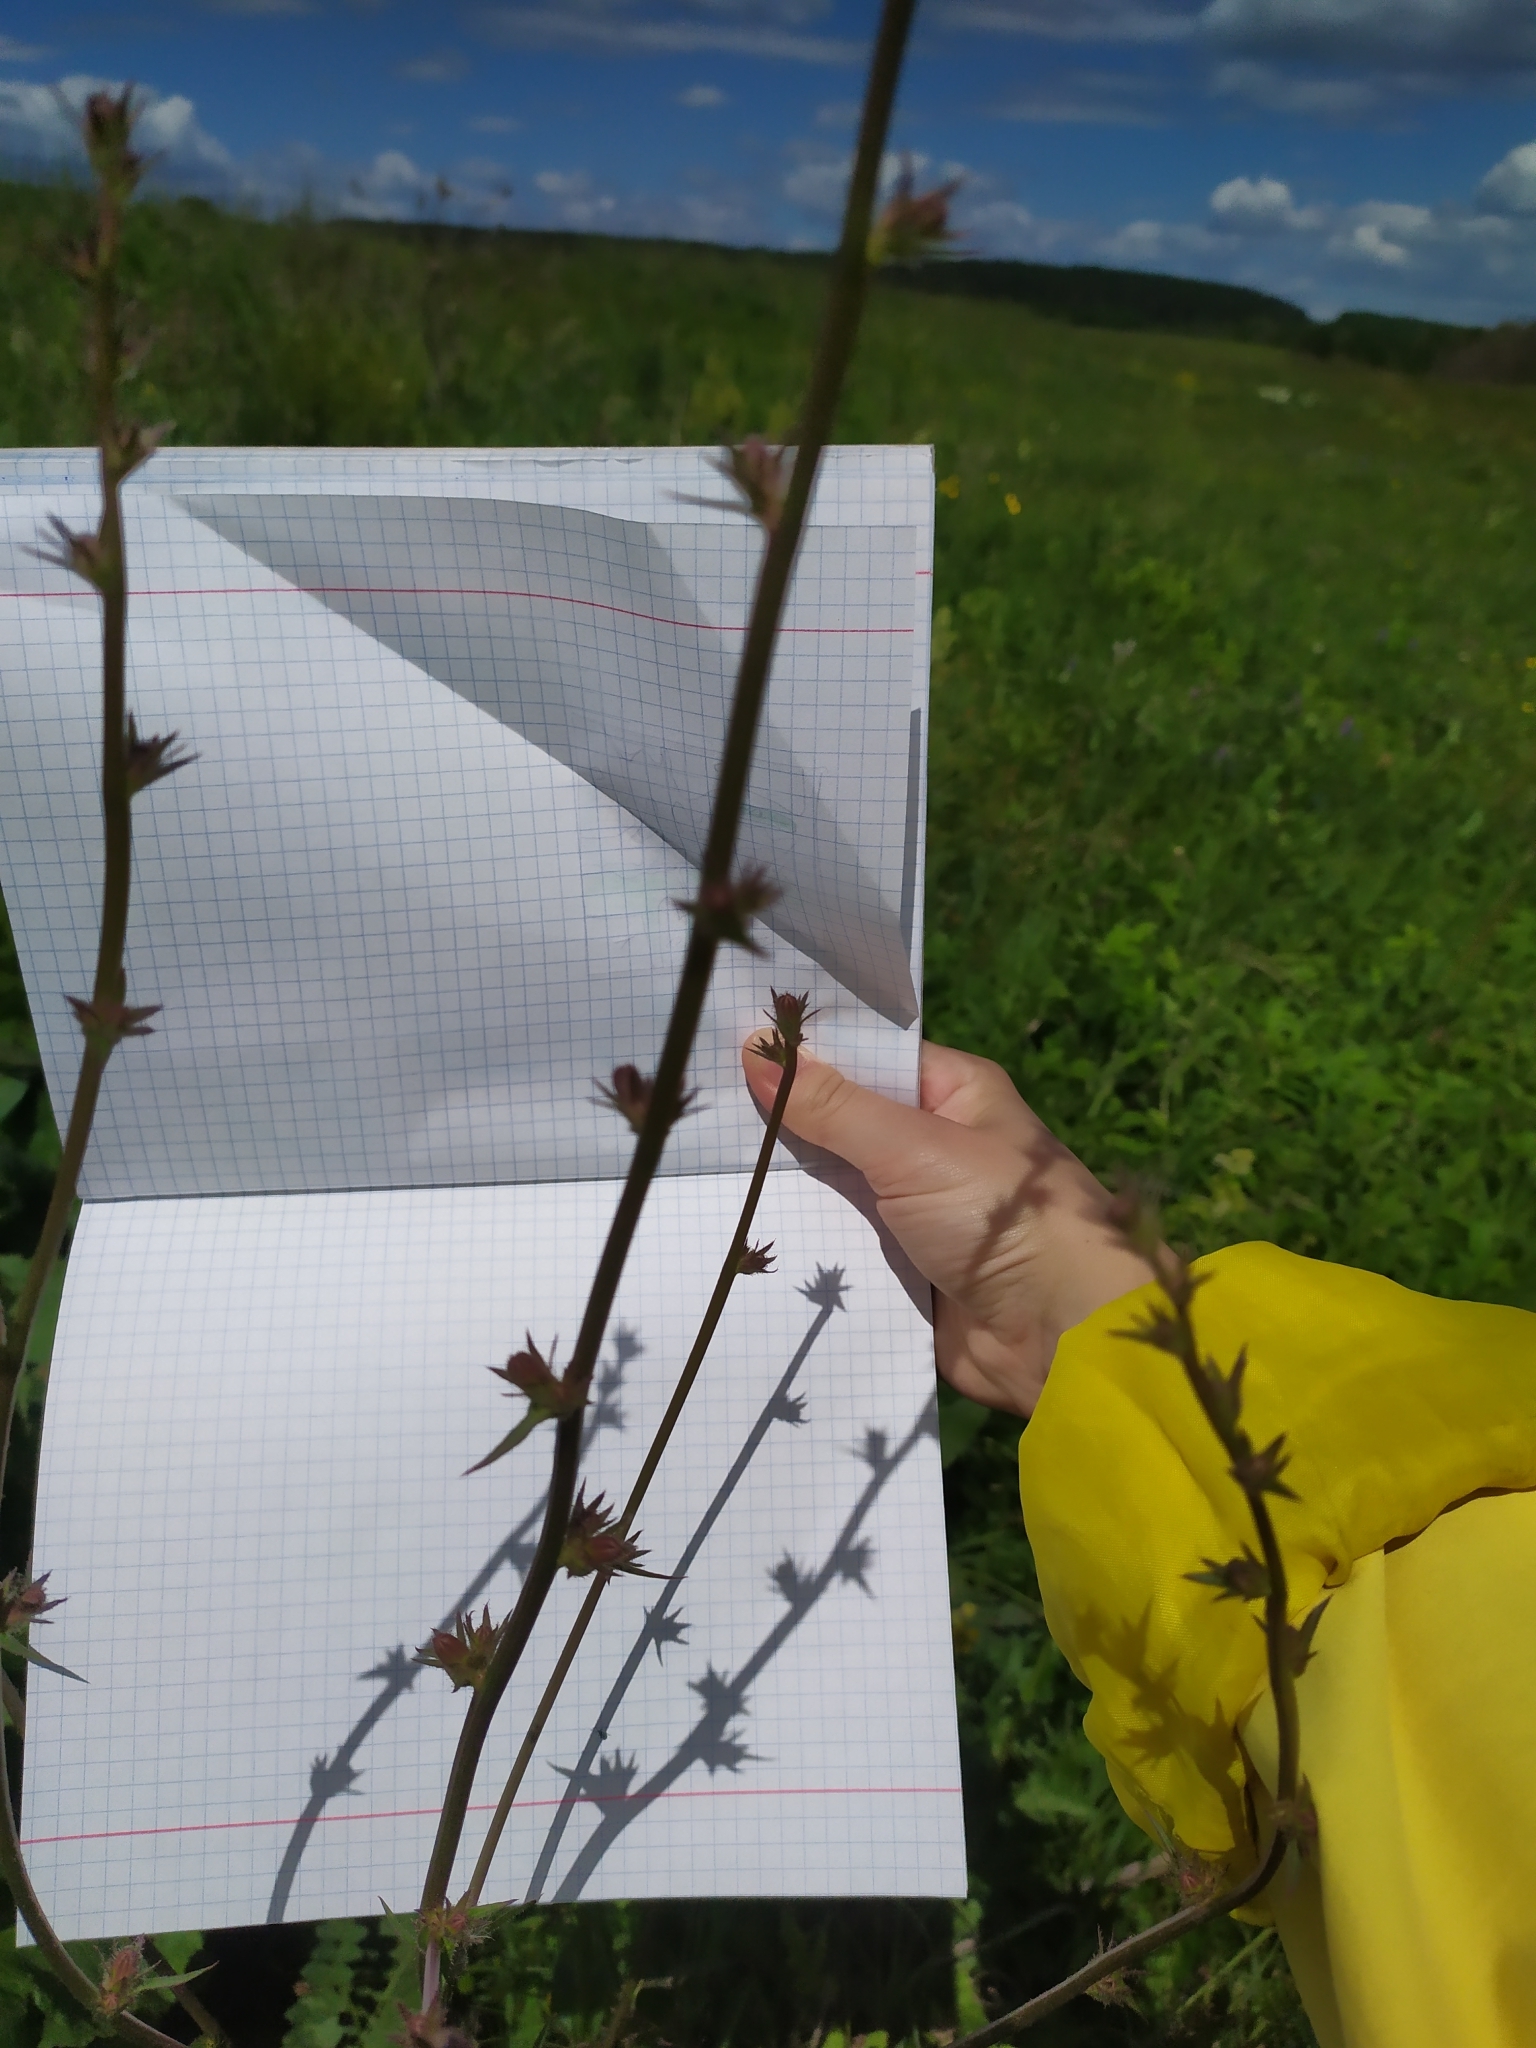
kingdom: Plantae
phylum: Tracheophyta
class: Magnoliopsida
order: Asterales
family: Asteraceae
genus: Cichorium
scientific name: Cichorium intybus
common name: Chicory
